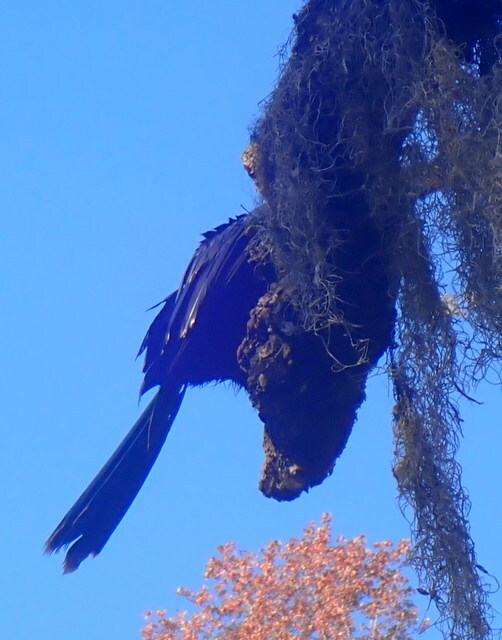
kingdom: Animalia
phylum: Chordata
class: Aves
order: Suliformes
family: Anhingidae
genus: Anhinga
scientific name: Anhinga anhinga
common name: Anhinga
